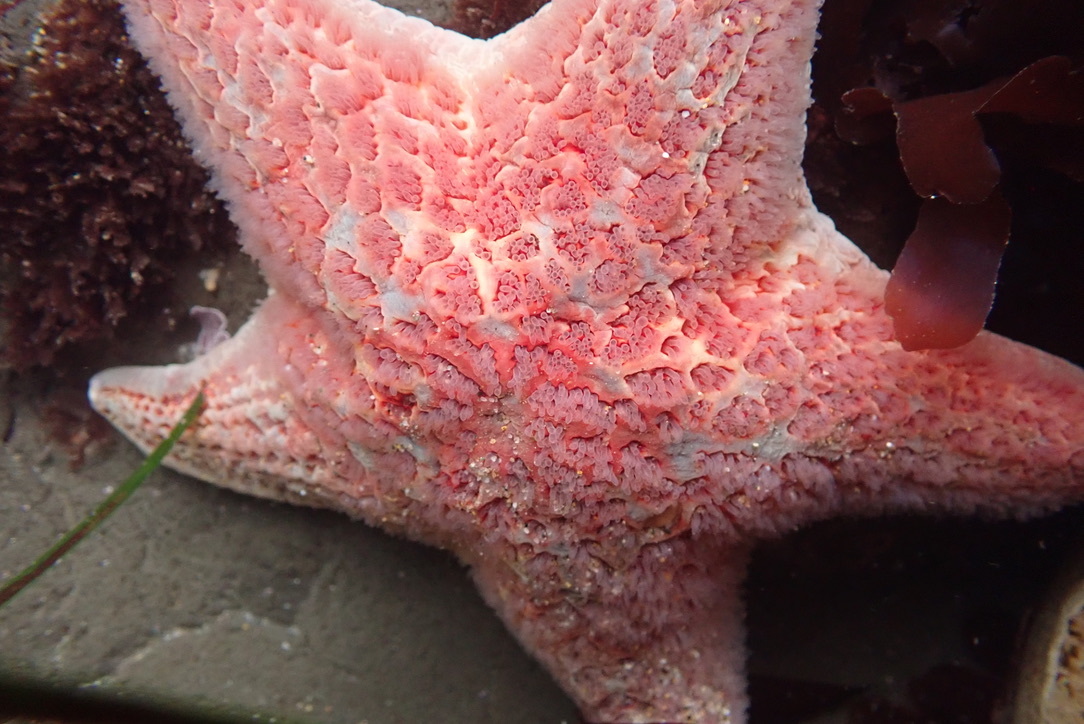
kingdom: Animalia
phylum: Echinodermata
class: Asteroidea
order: Valvatida
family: Asteropseidae
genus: Dermasterias
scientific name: Dermasterias imbricata
